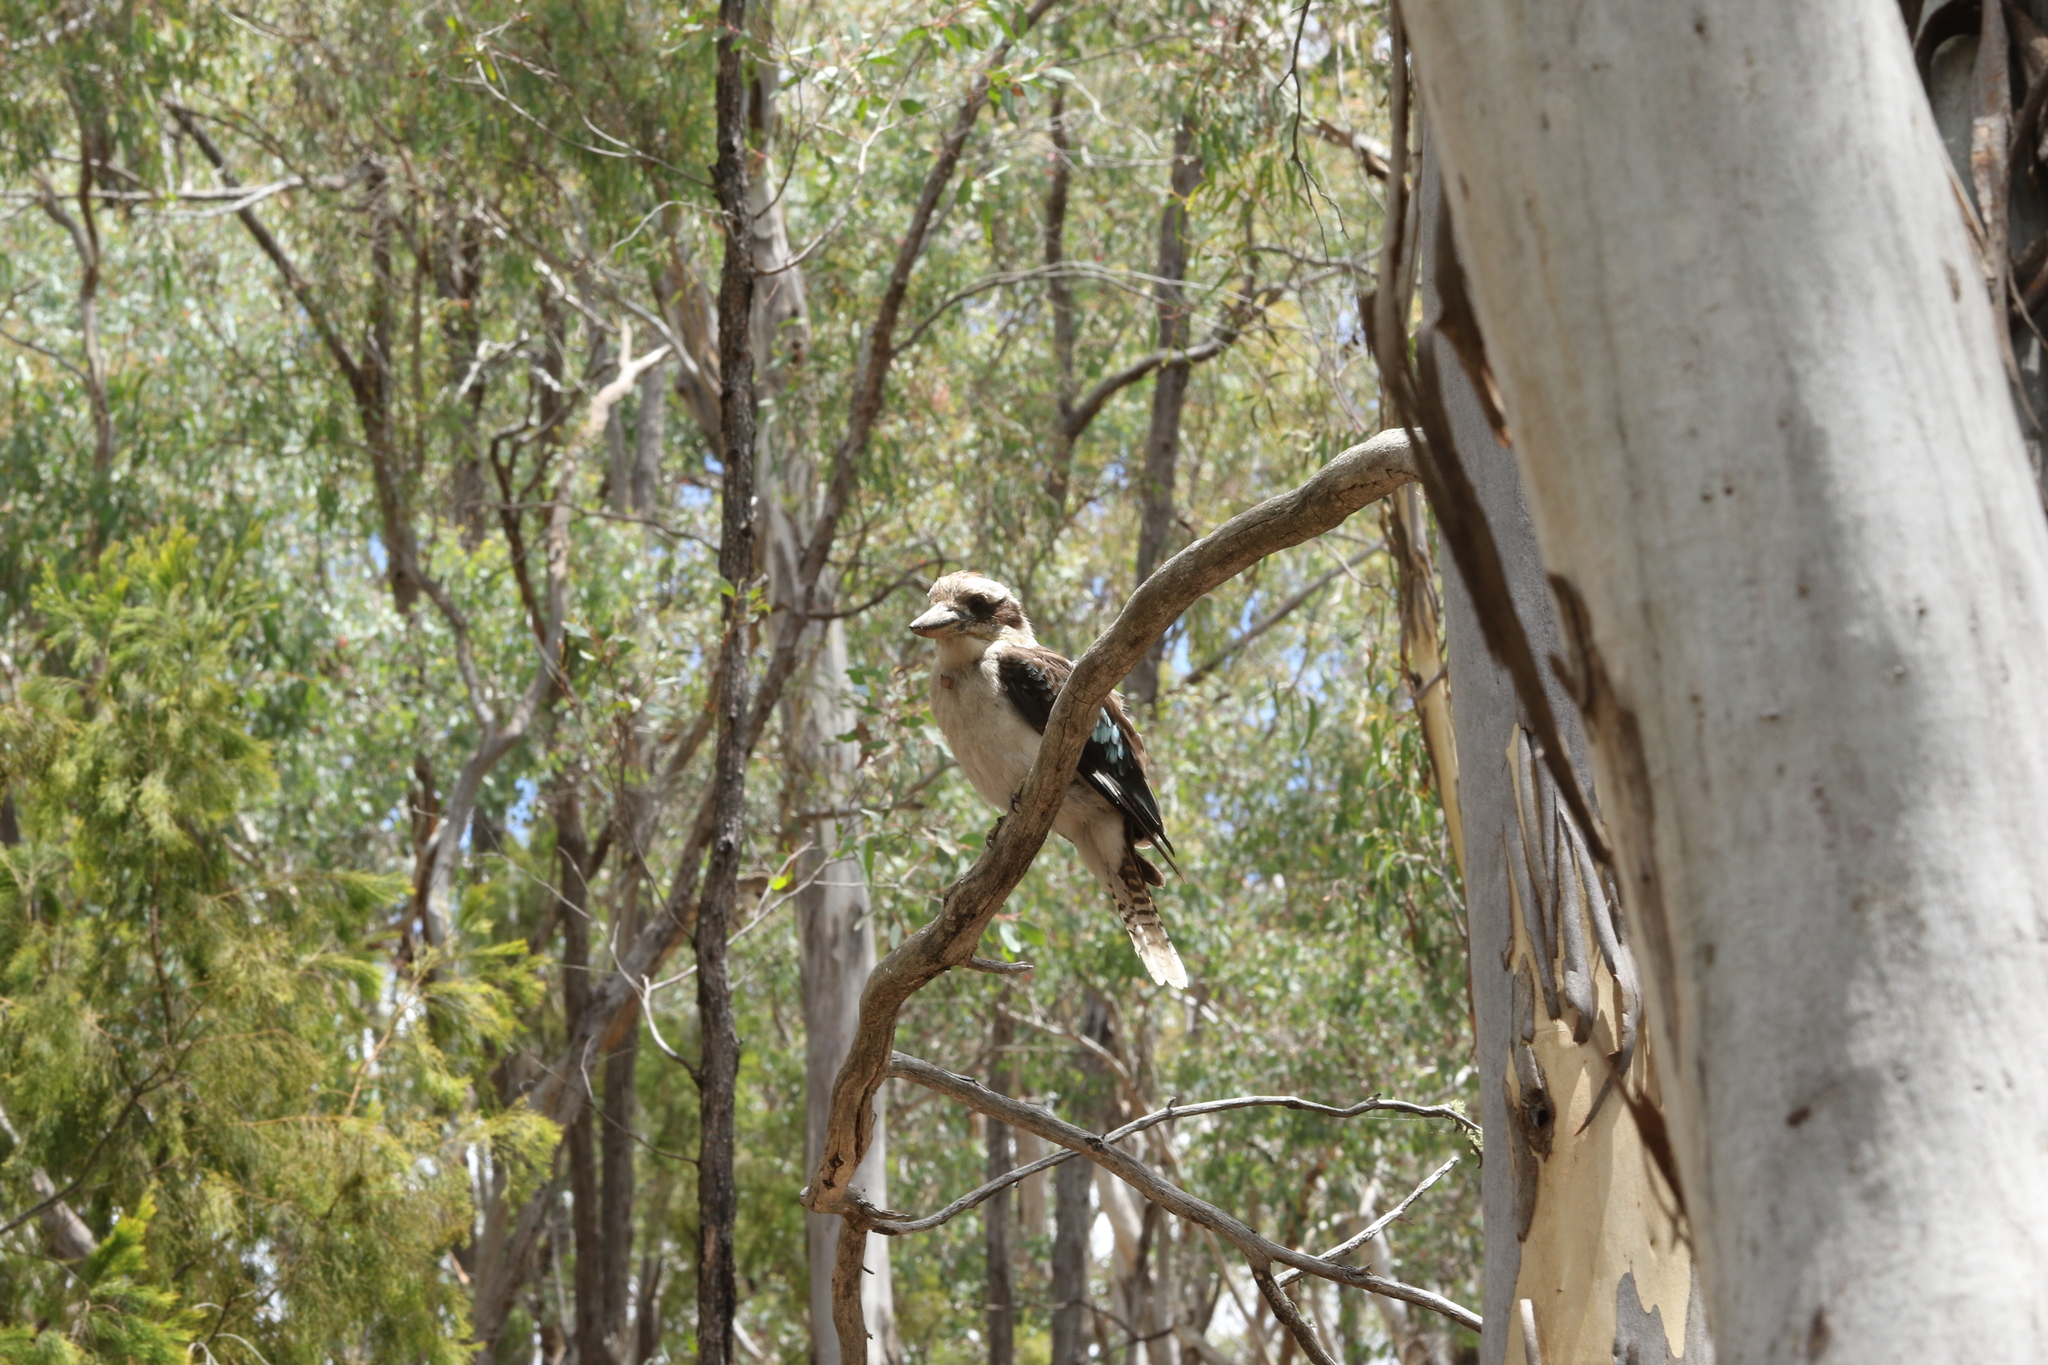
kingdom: Animalia
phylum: Chordata
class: Aves
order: Coraciiformes
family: Alcedinidae
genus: Dacelo
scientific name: Dacelo novaeguineae
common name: Laughing kookaburra
